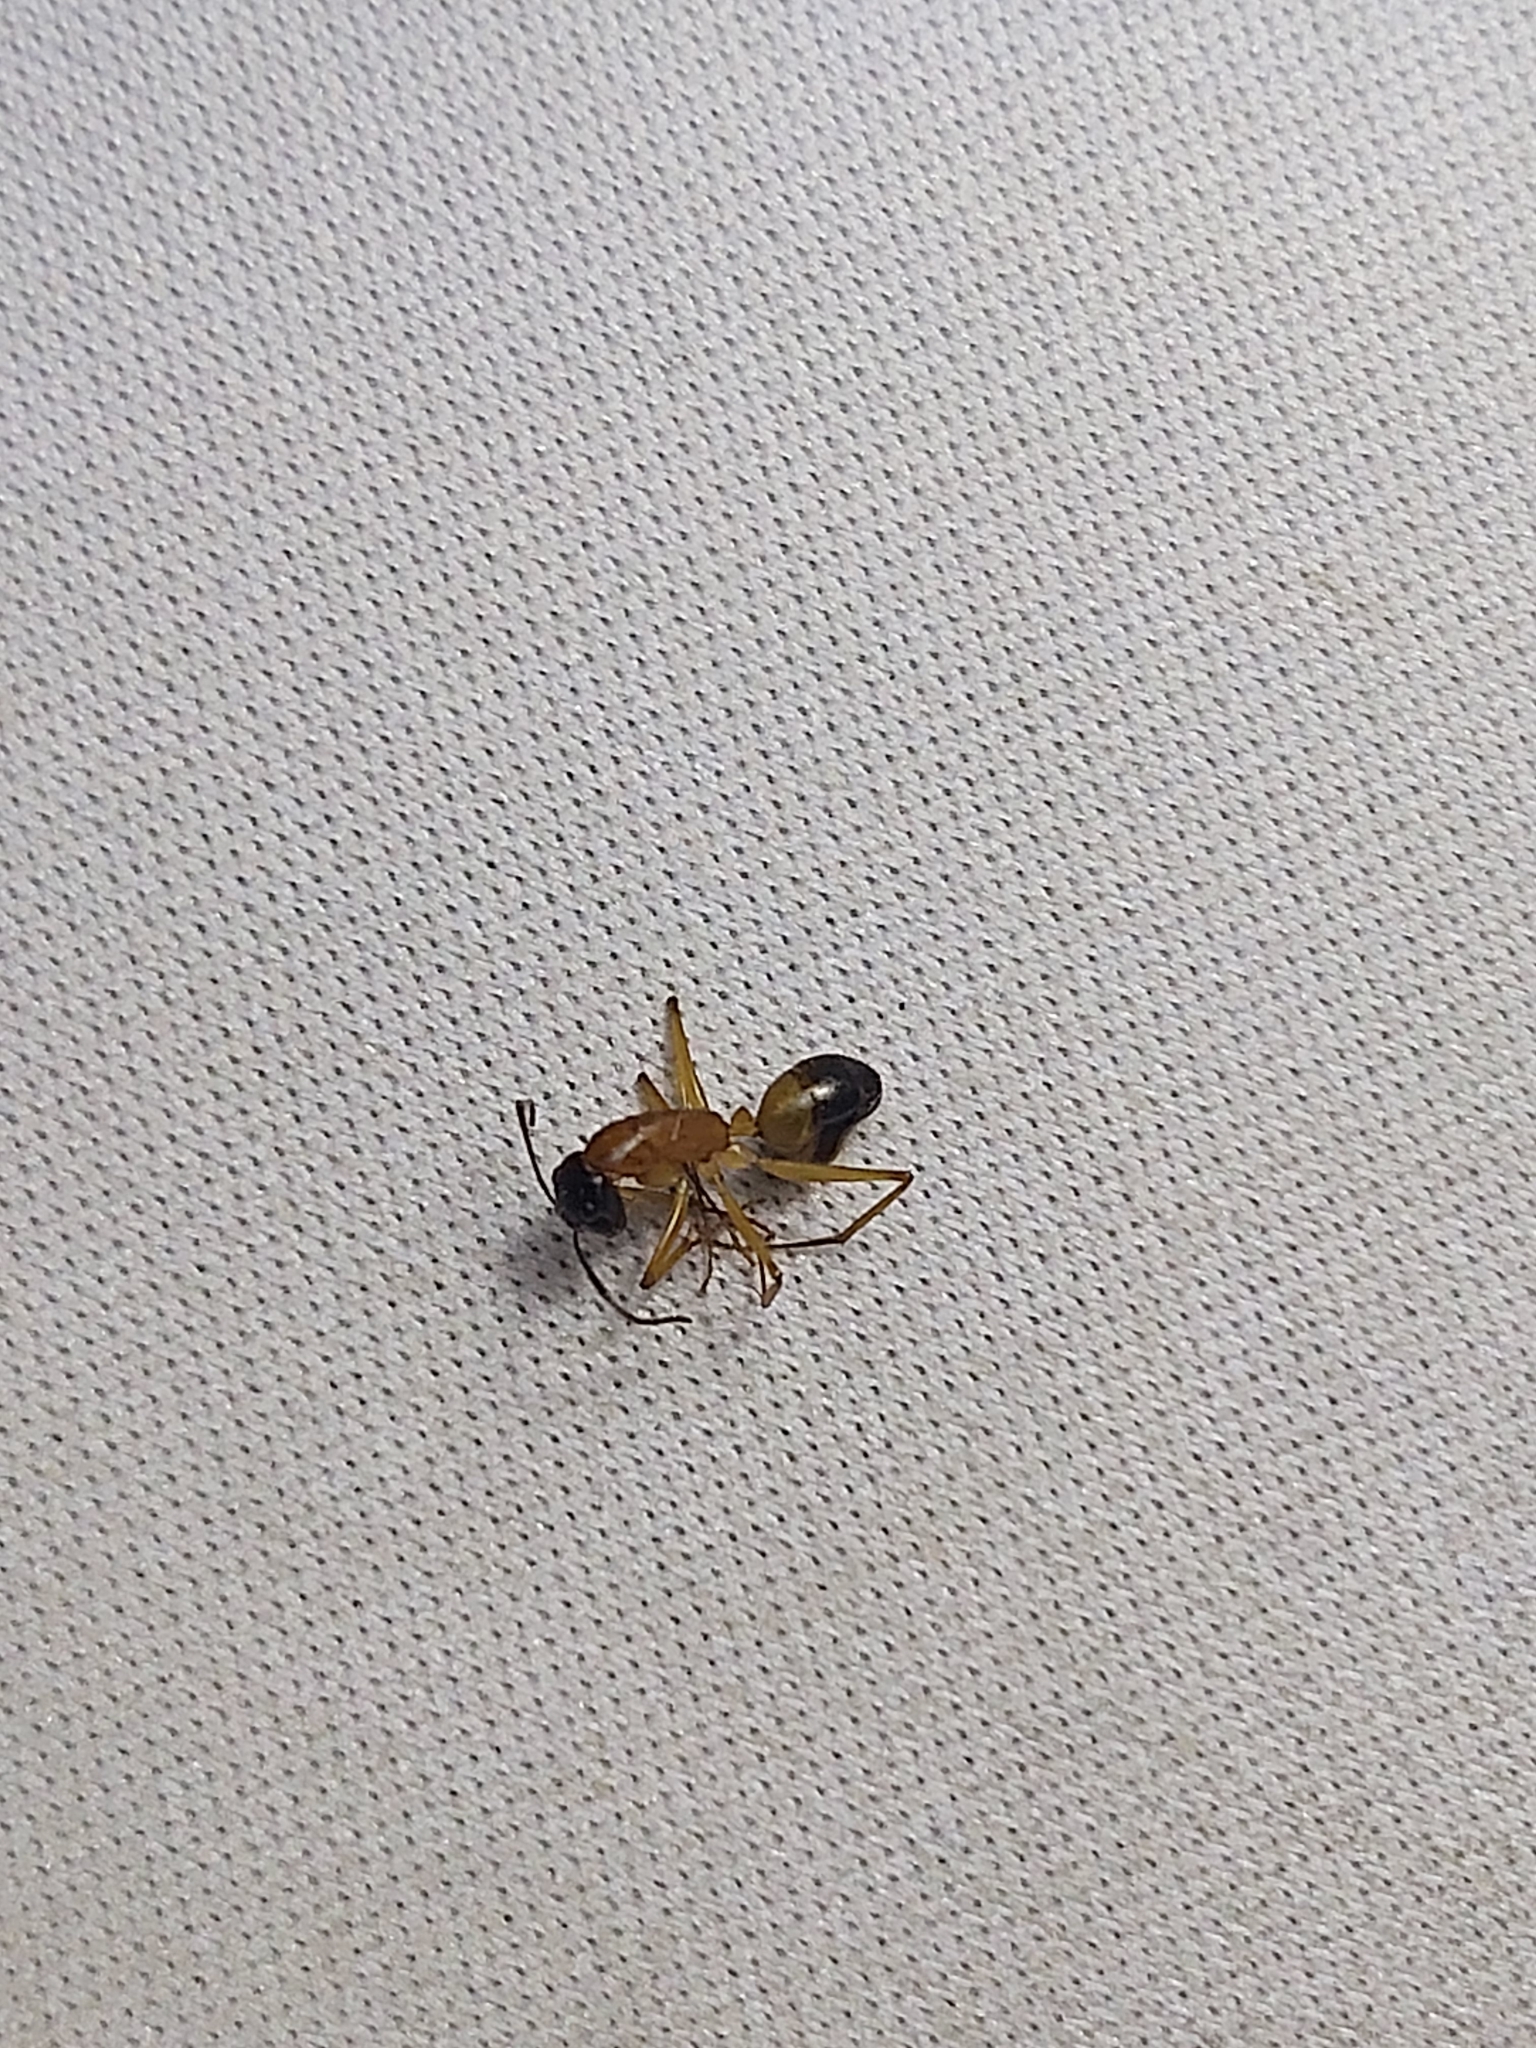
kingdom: Animalia
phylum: Arthropoda
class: Insecta
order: Hymenoptera
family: Formicidae
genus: Camponotus
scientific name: Camponotus consobrinus
